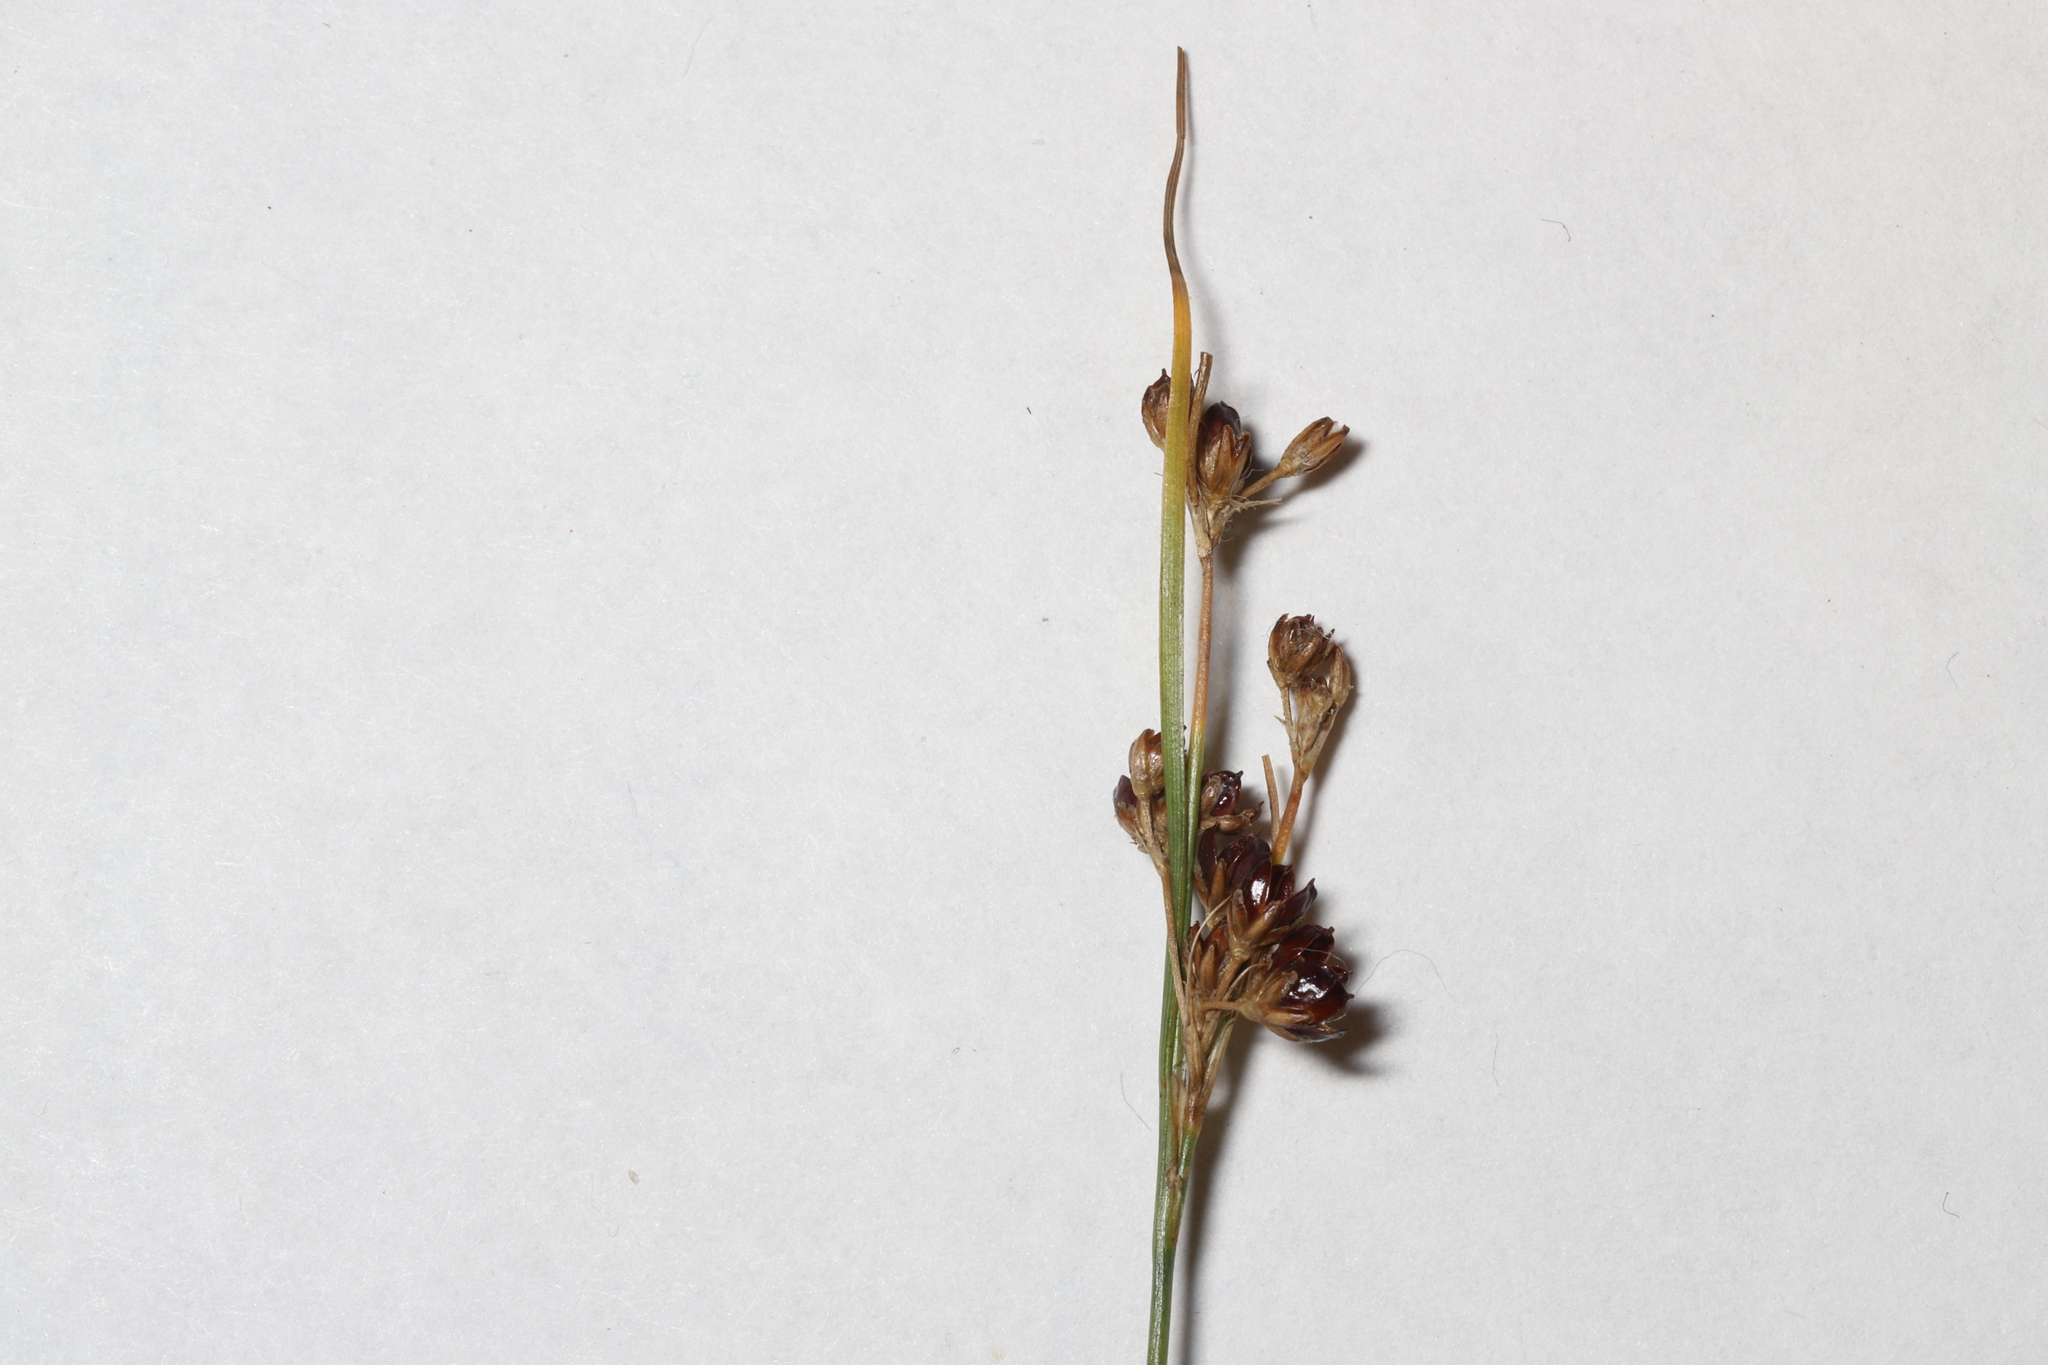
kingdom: Plantae
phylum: Tracheophyta
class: Liliopsida
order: Poales
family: Juncaceae
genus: Juncus
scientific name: Juncus compressus
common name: Round-fruited rush
